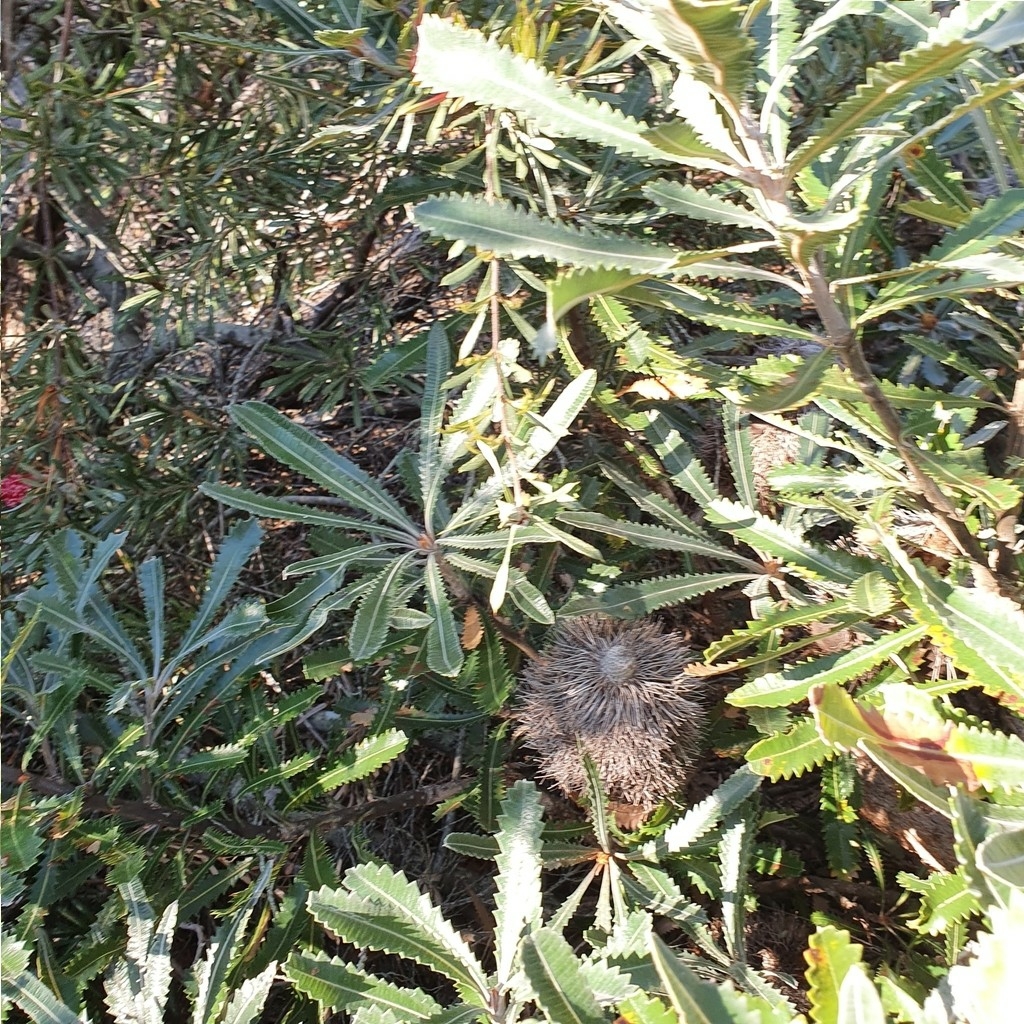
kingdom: Plantae
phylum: Tracheophyta
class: Magnoliopsida
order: Proteales
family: Proteaceae
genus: Banksia
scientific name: Banksia serrata
